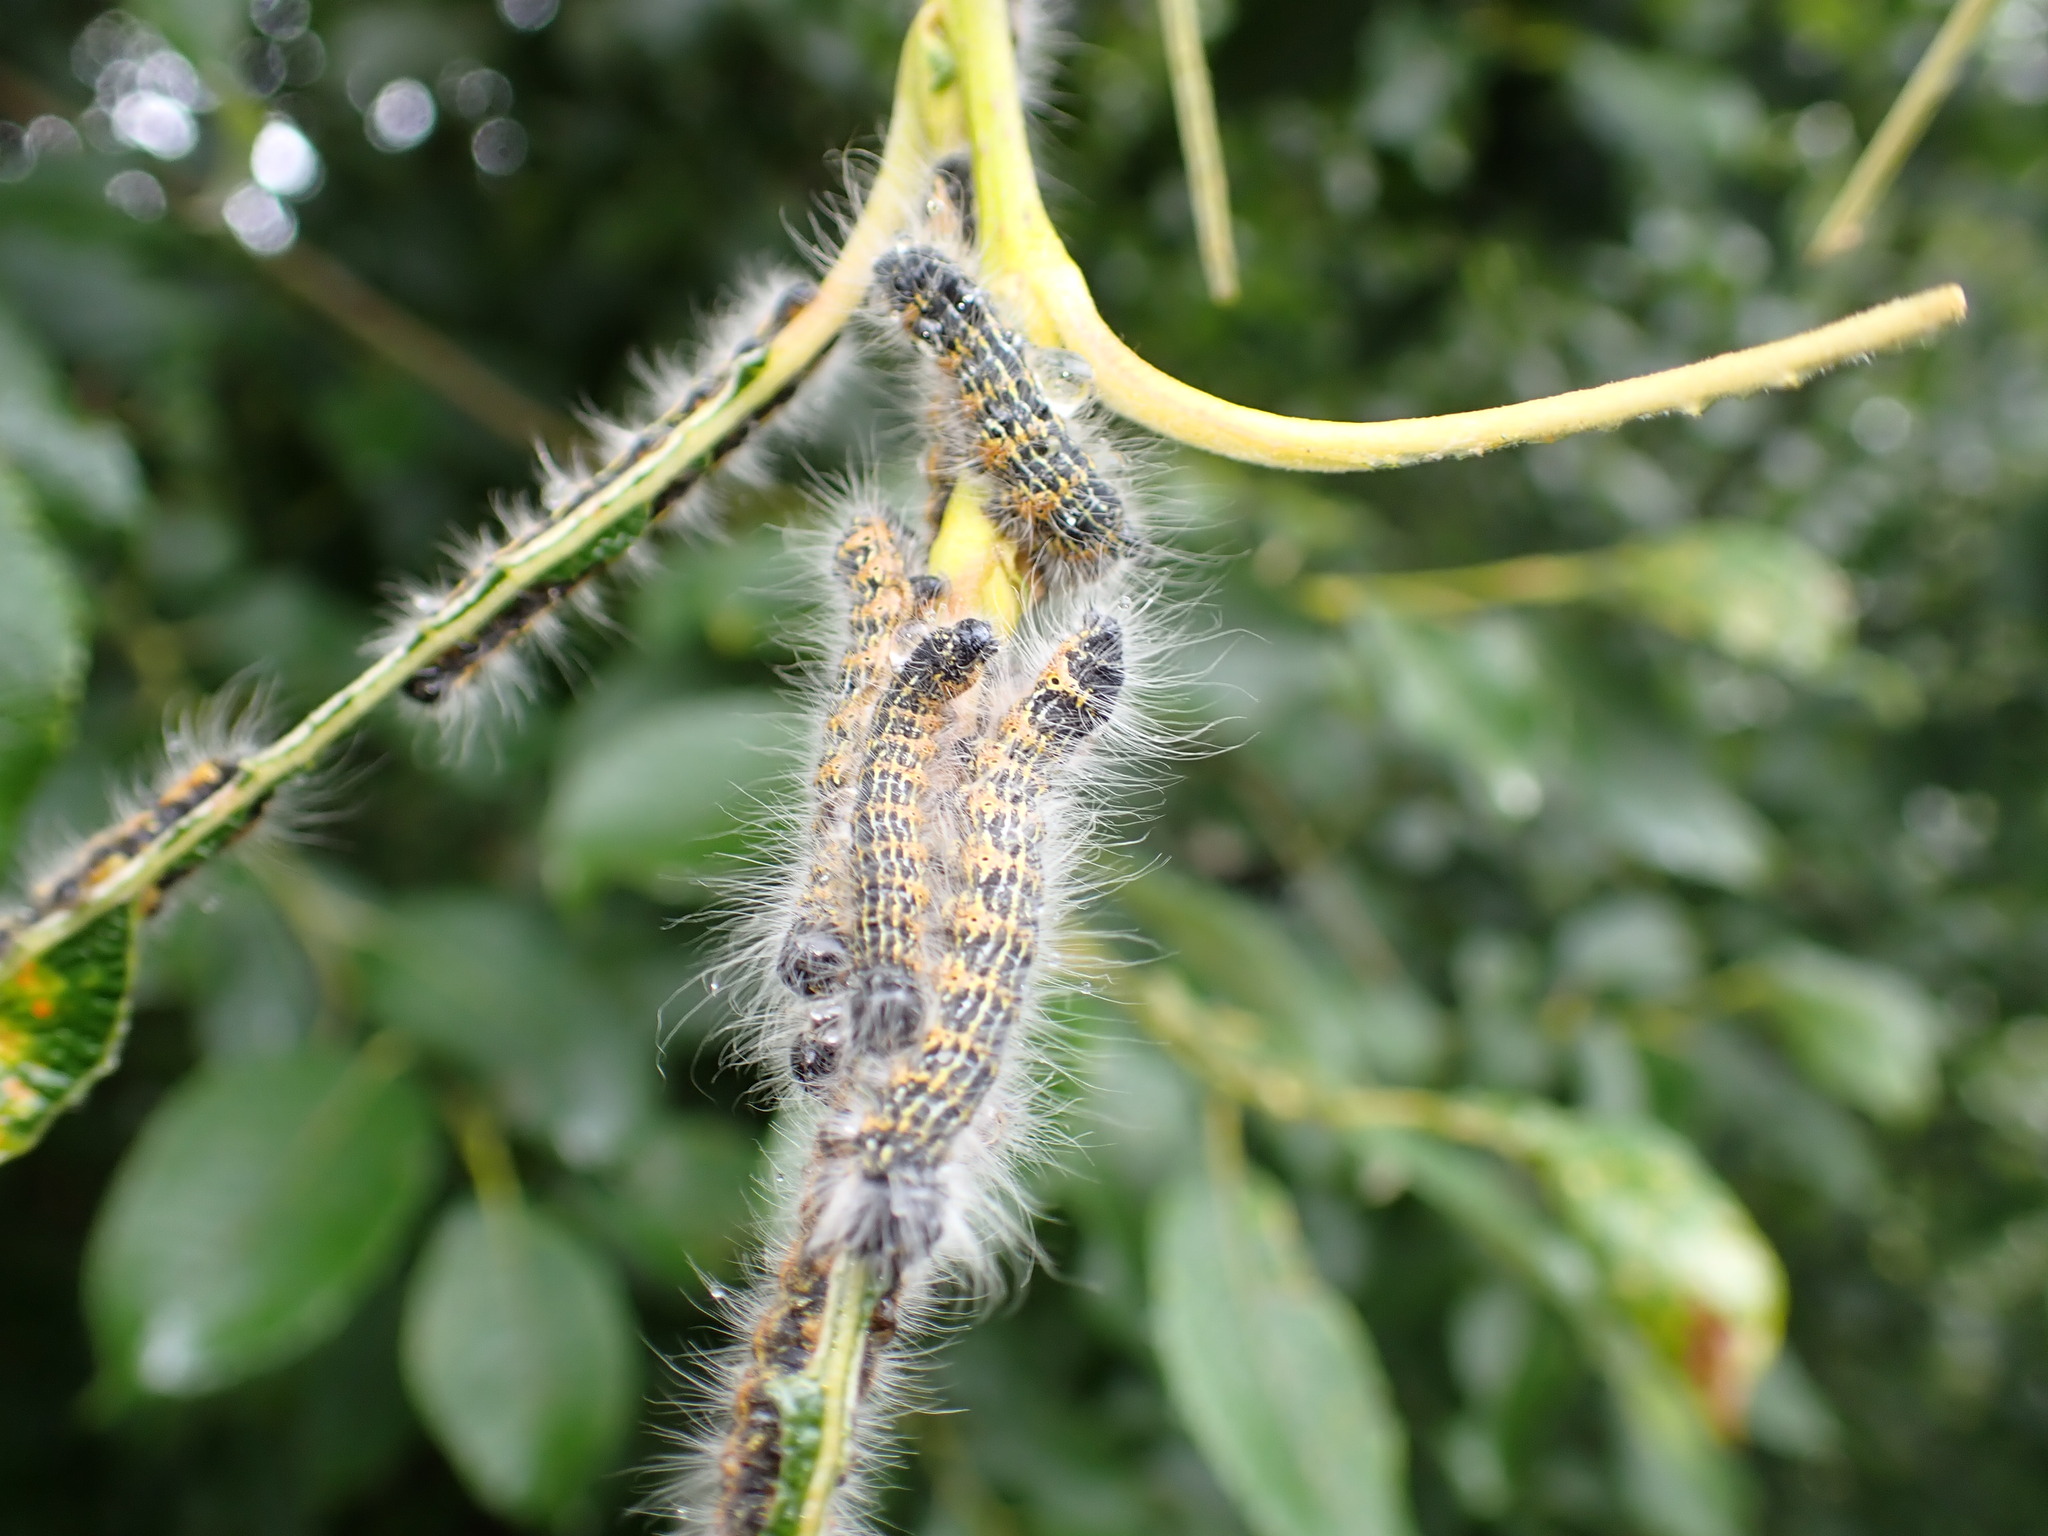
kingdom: Animalia
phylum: Arthropoda
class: Insecta
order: Lepidoptera
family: Notodontidae
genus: Phalera
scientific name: Phalera bucephala
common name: Buff-tip
